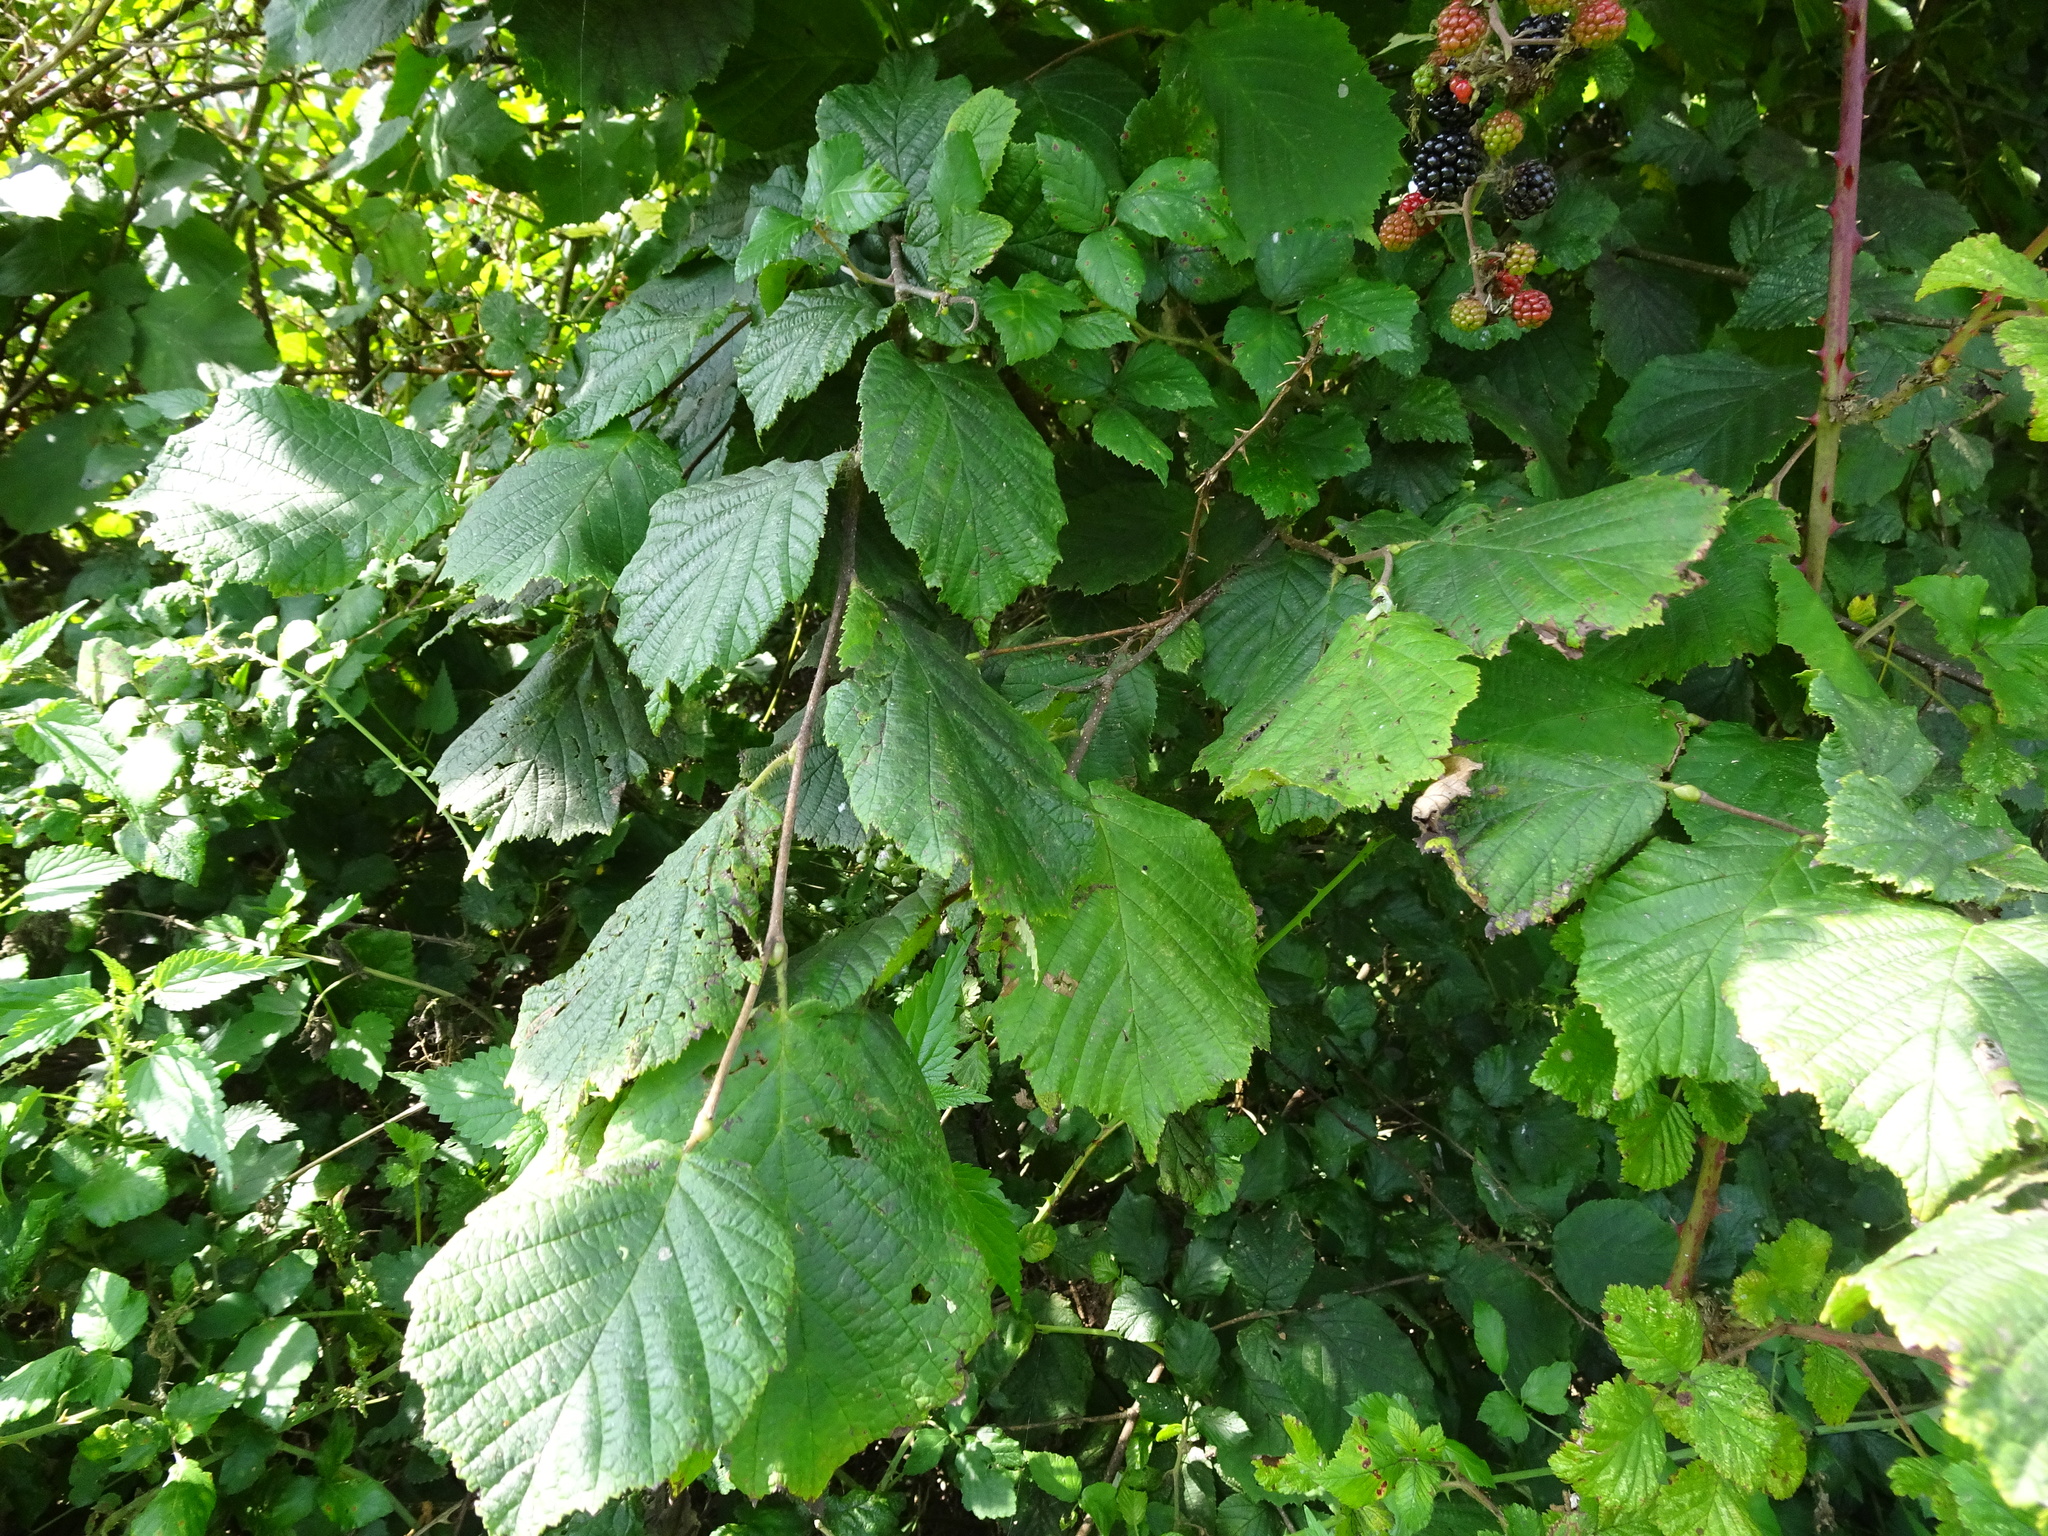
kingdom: Plantae
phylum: Tracheophyta
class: Magnoliopsida
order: Fagales
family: Betulaceae
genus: Corylus
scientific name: Corylus avellana
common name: European hazel
